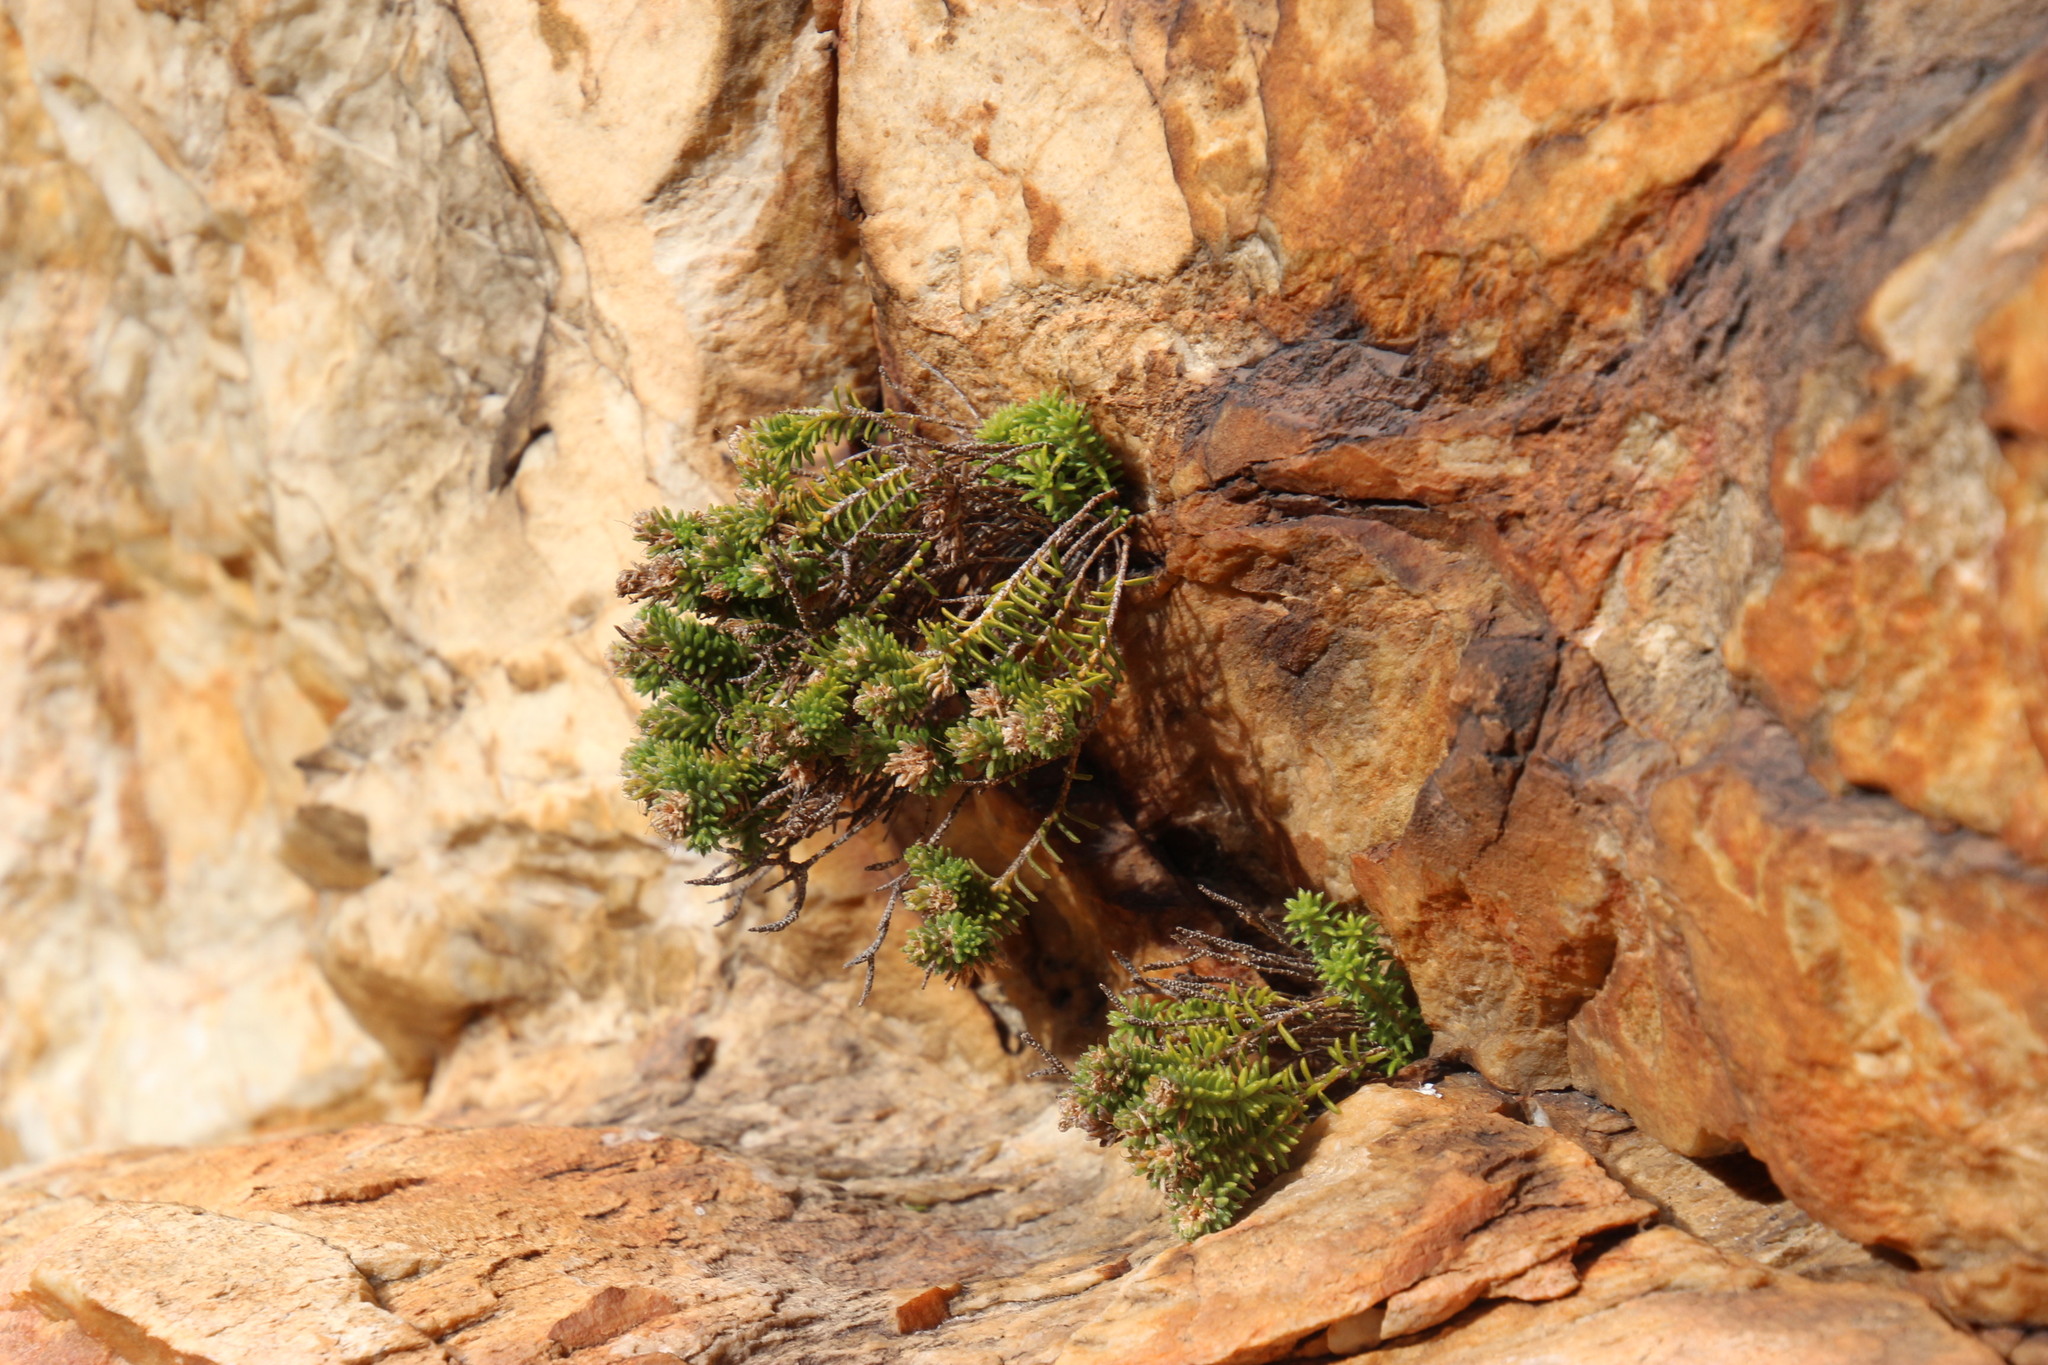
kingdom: Plantae
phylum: Tracheophyta
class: Magnoliopsida
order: Lamiales
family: Stilbaceae
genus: Stilbe
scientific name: Stilbe rupestris
